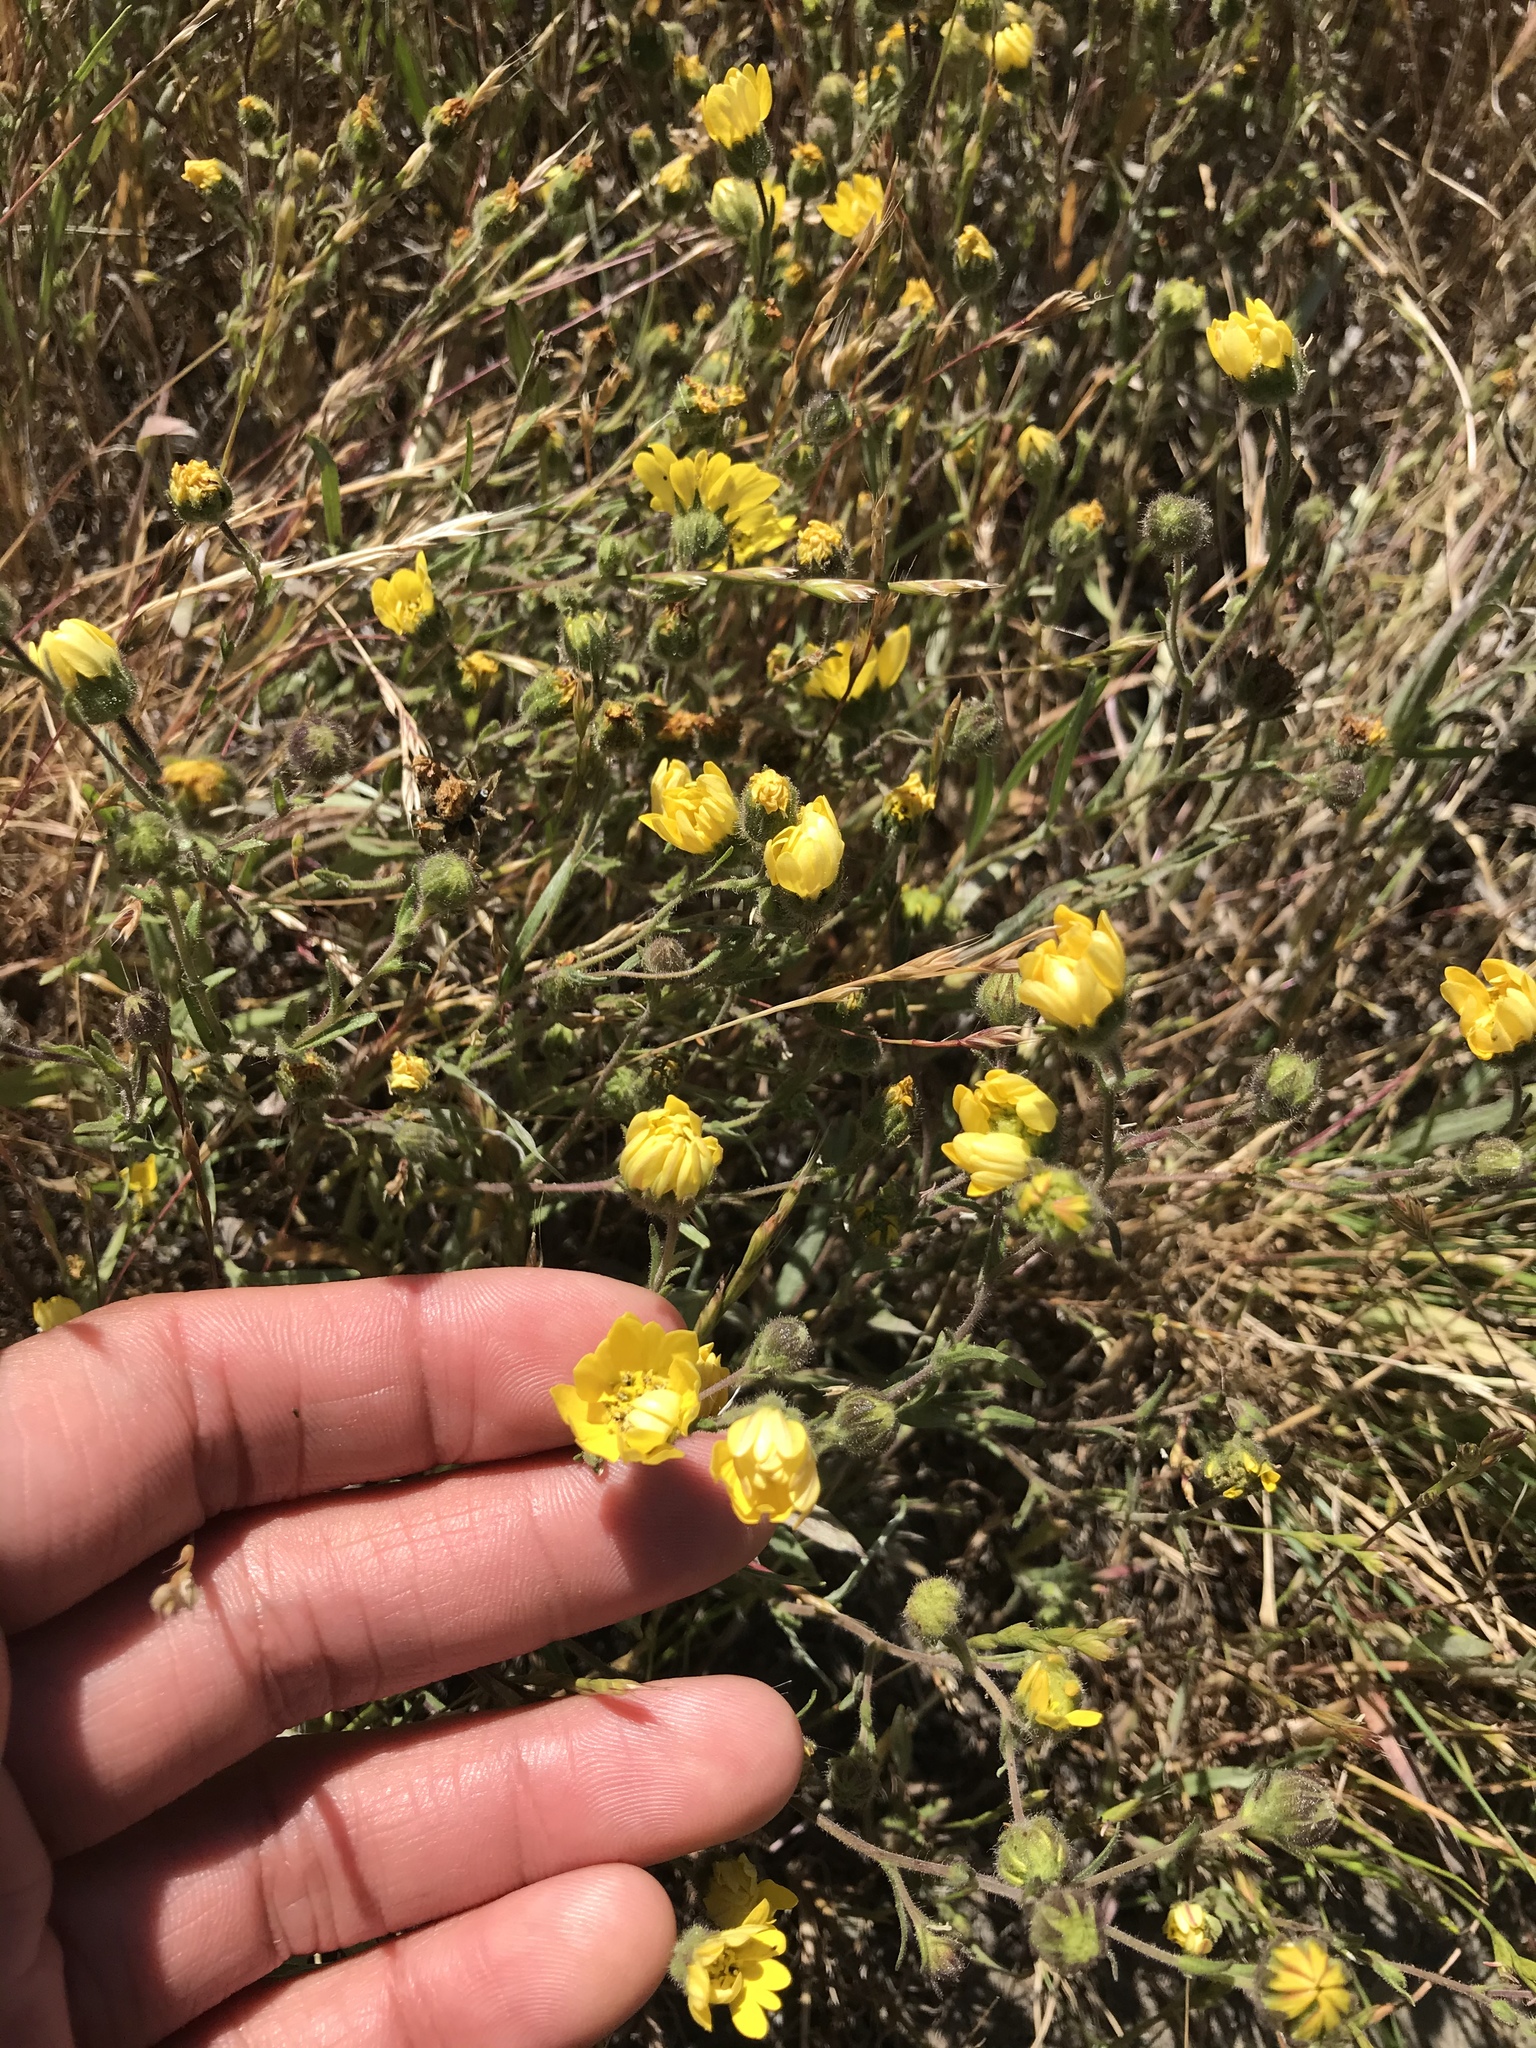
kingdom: Plantae
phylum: Tracheophyta
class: Magnoliopsida
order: Asterales
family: Asteraceae
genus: Hemizonia
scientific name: Hemizonia congesta
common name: Hayfield tarweed
